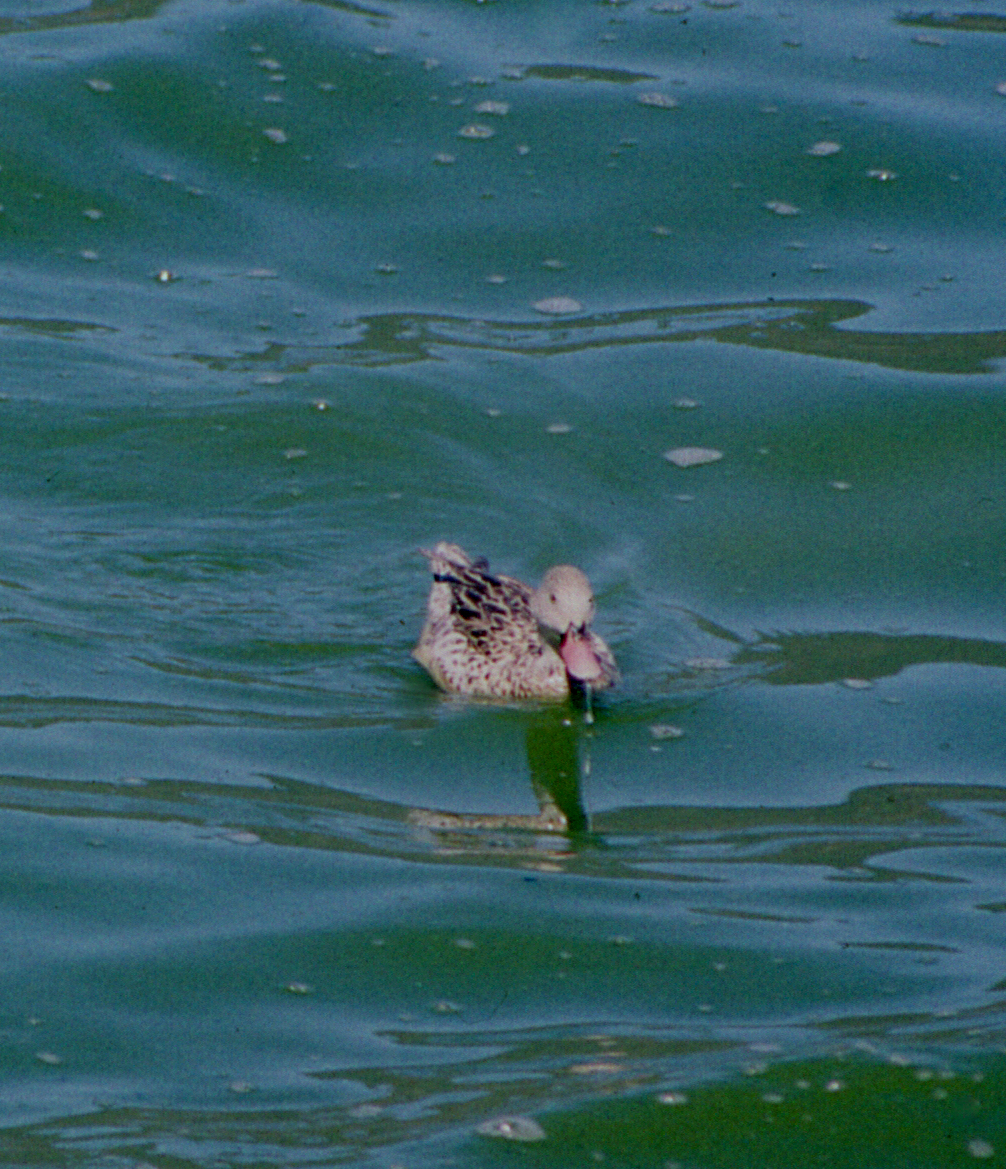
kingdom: Animalia
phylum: Chordata
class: Aves
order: Anseriformes
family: Anatidae
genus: Anas
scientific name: Anas capensis
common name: Cape teal
